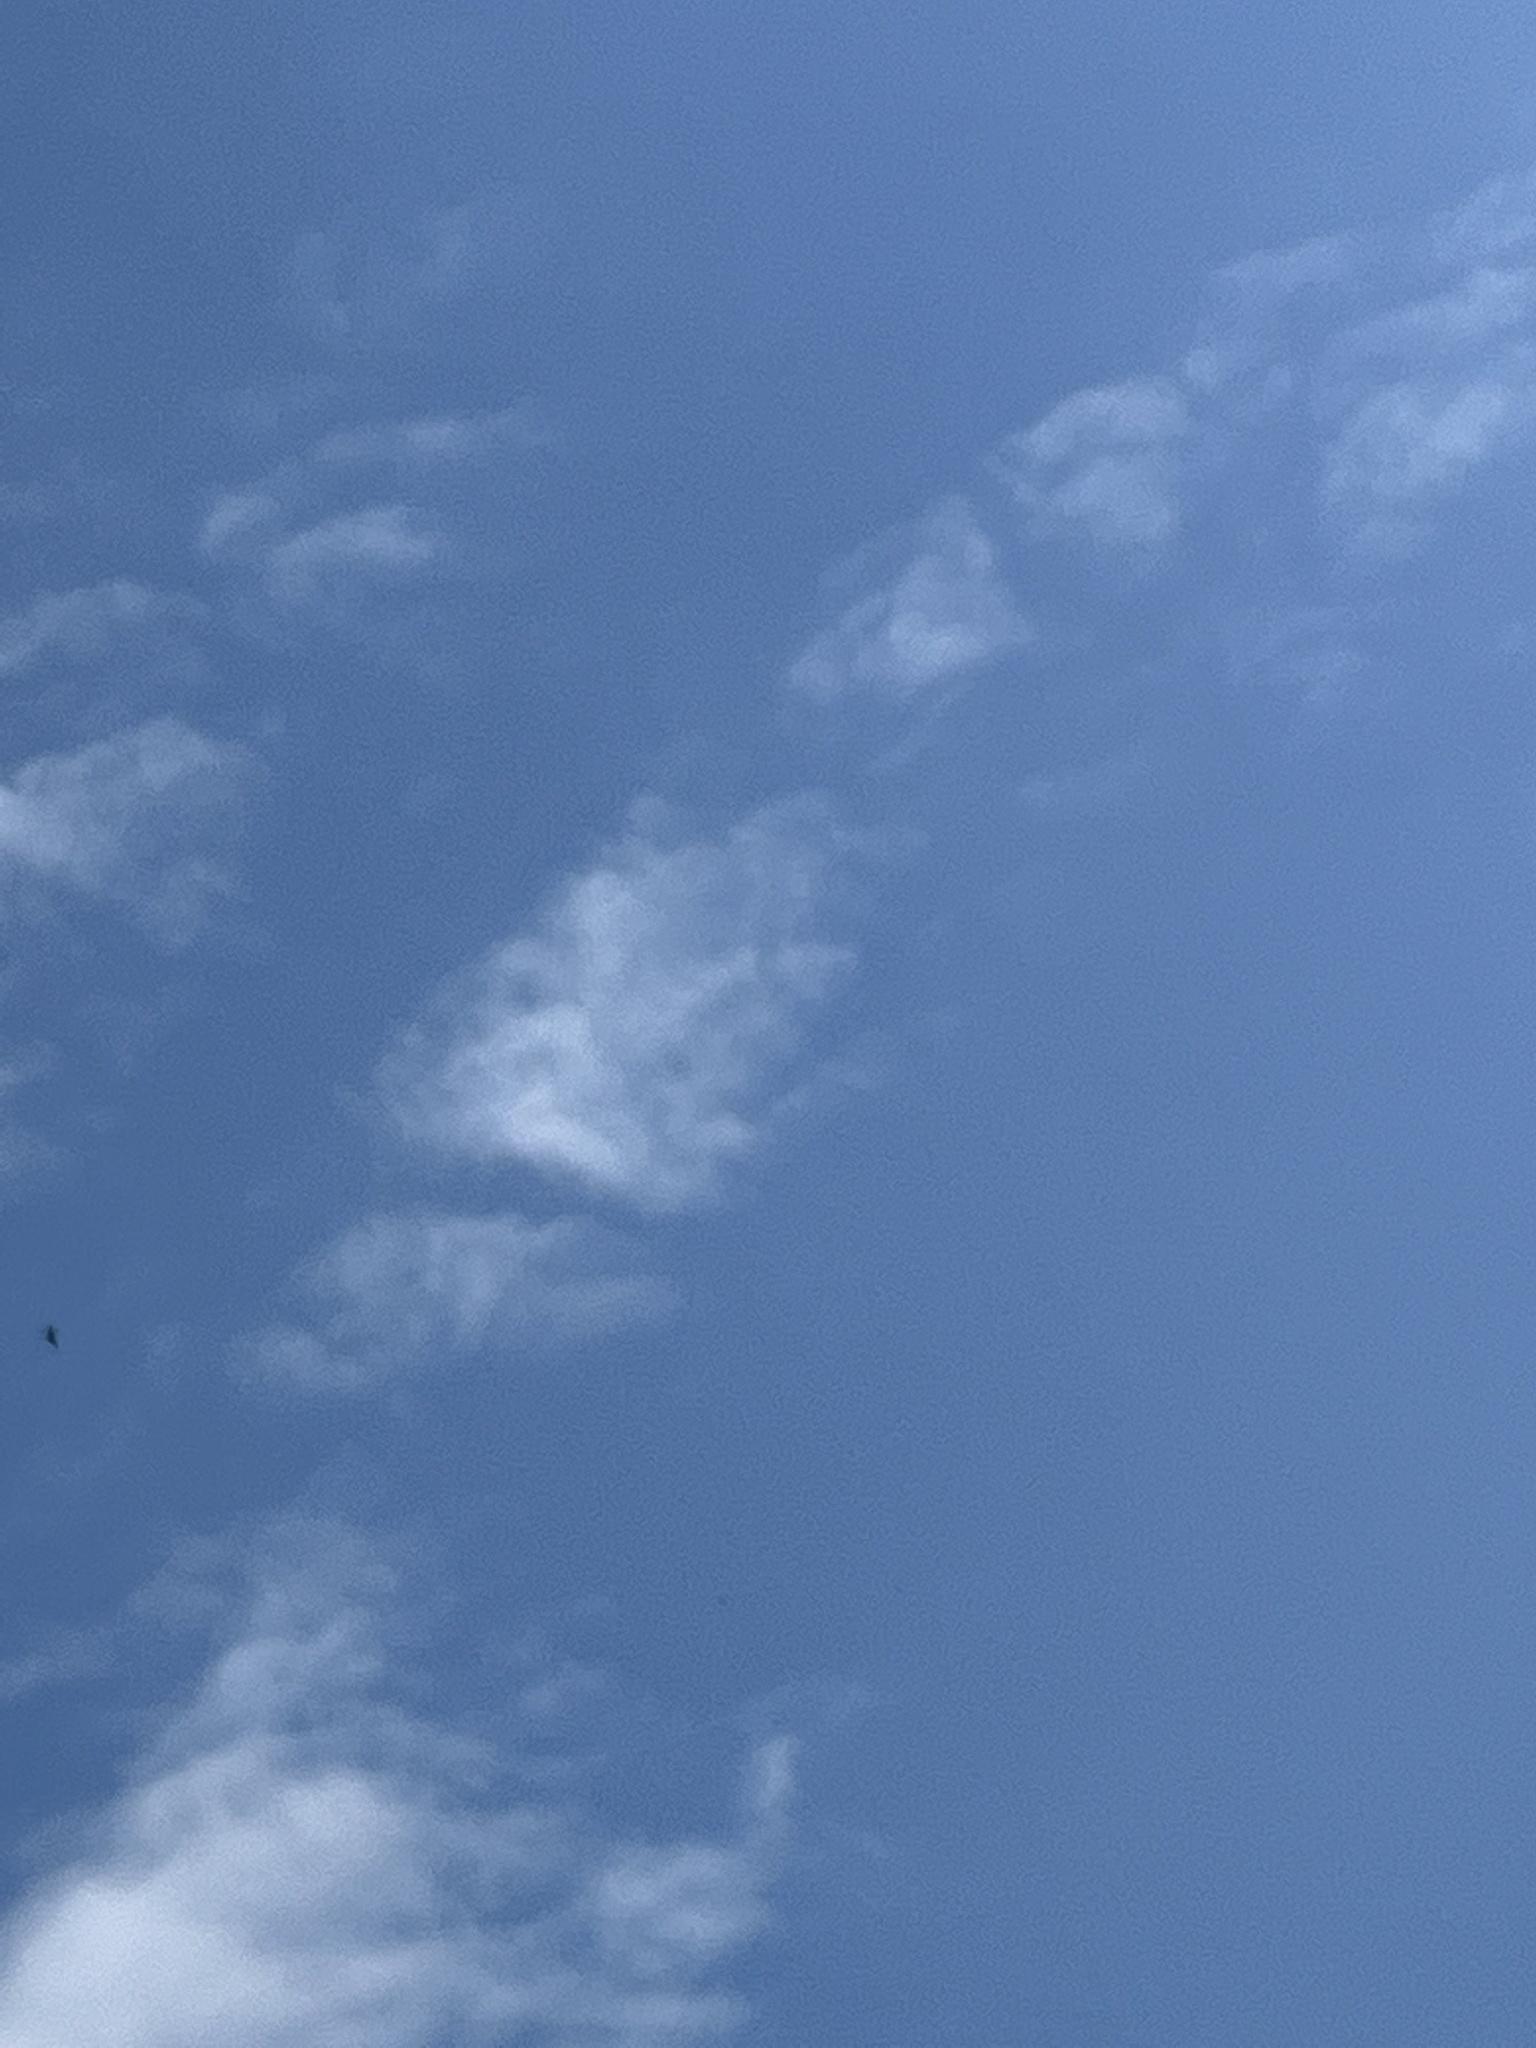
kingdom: Animalia
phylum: Chordata
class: Aves
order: Apodiformes
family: Apodidae
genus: Apus
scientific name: Apus apus
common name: Common swift
